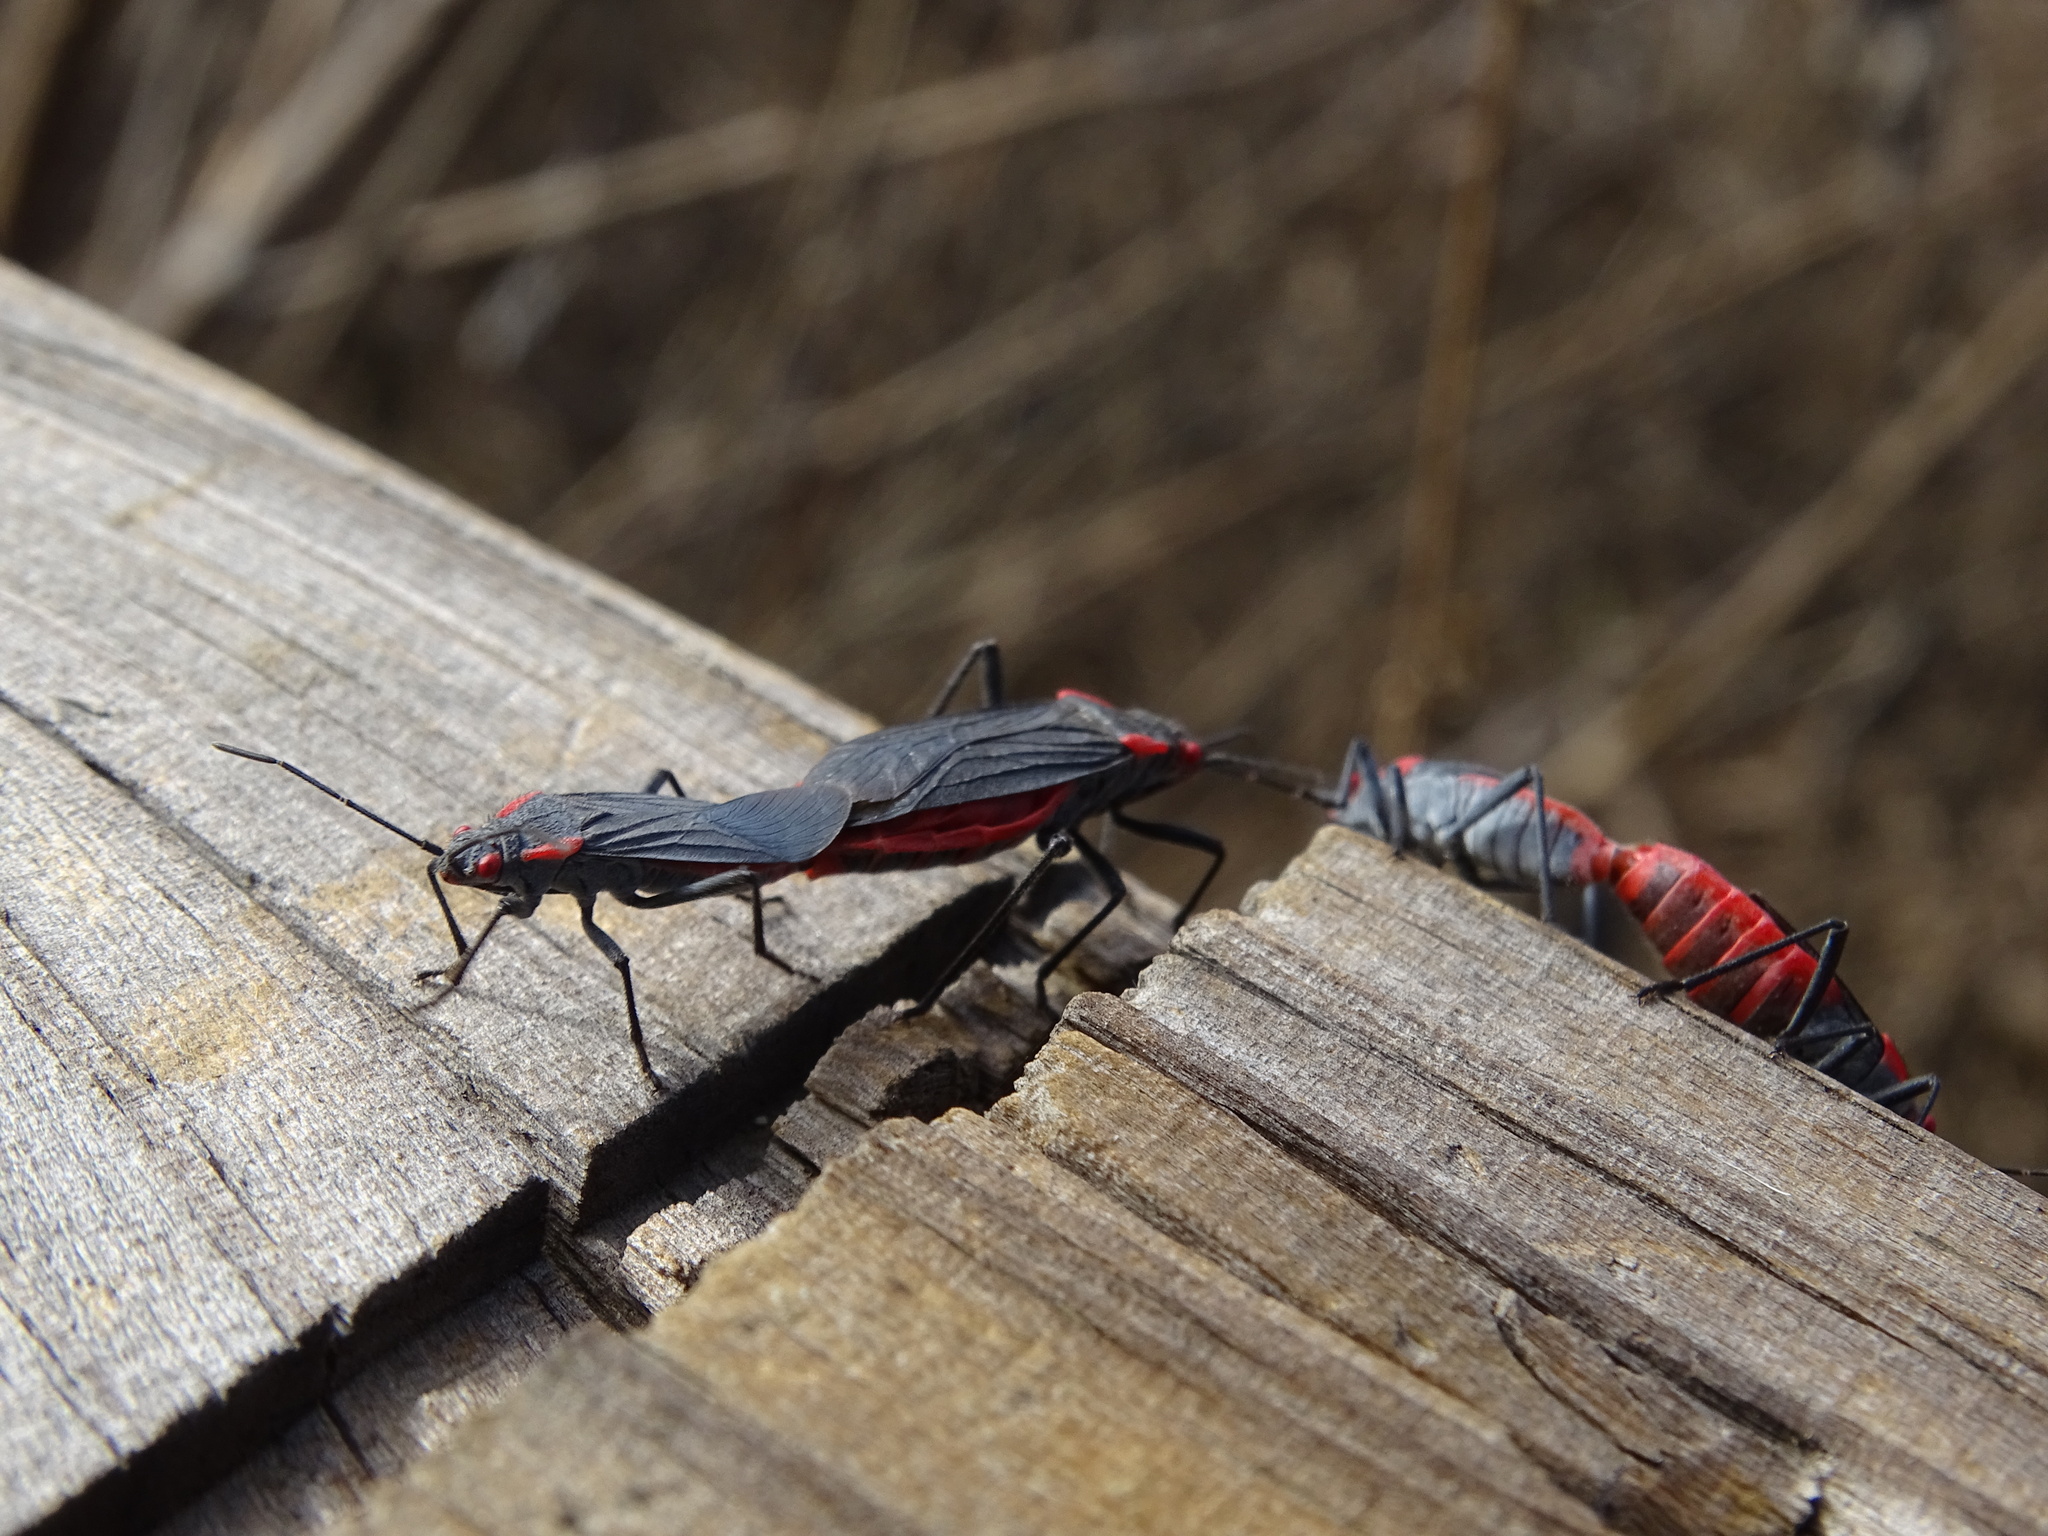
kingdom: Animalia
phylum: Arthropoda
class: Insecta
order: Hemiptera
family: Rhopalidae
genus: Jadera
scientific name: Jadera haematoloma
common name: Red-shouldered bug
